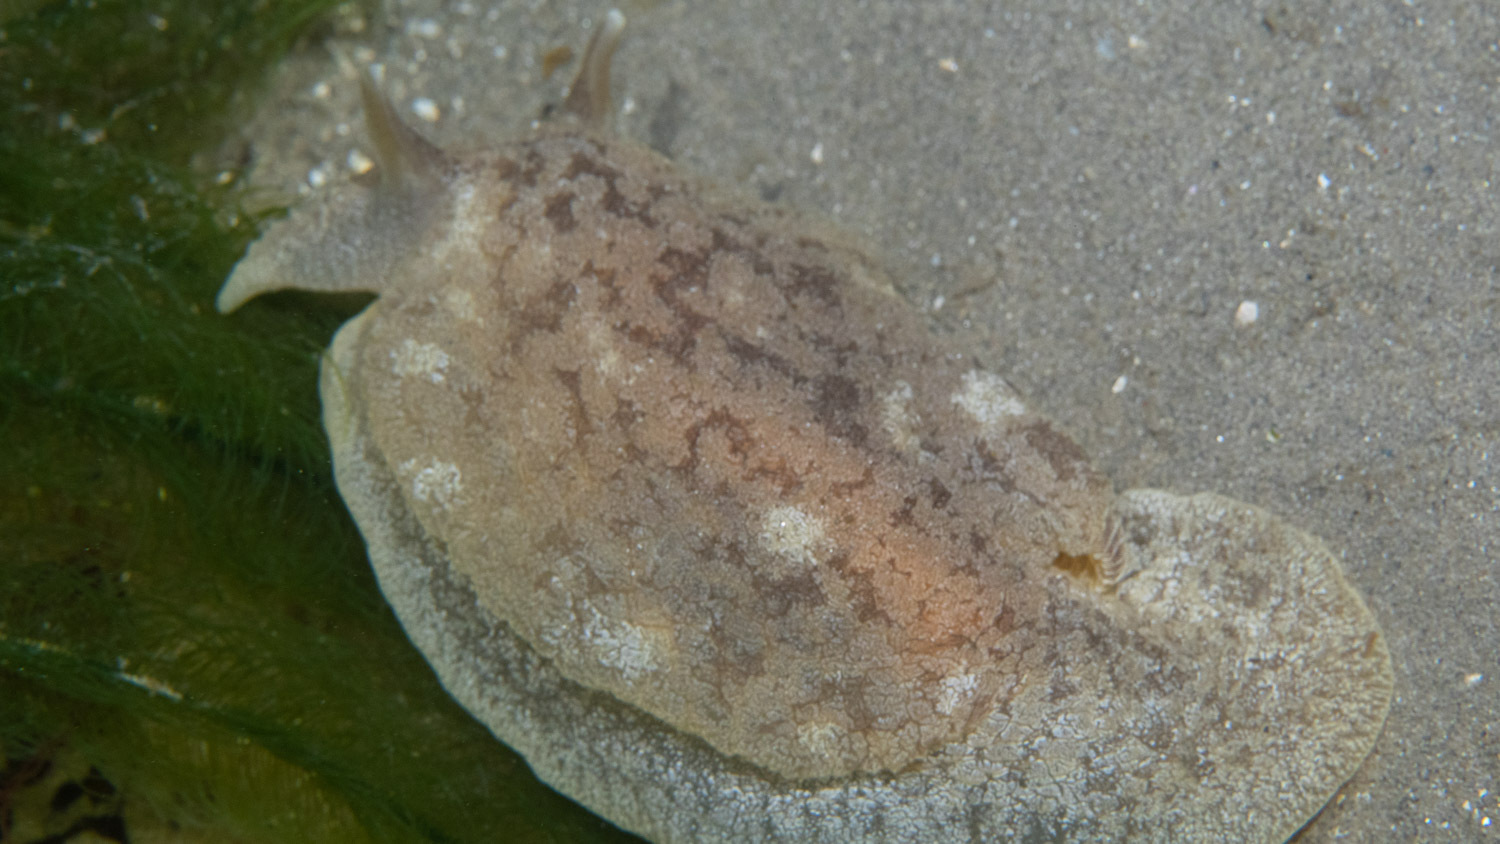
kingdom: Animalia
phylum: Mollusca
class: Gastropoda
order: Pleurobranchida
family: Pleurobranchaeidae
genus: Pleurobranchaea
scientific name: Pleurobranchaea maculata
